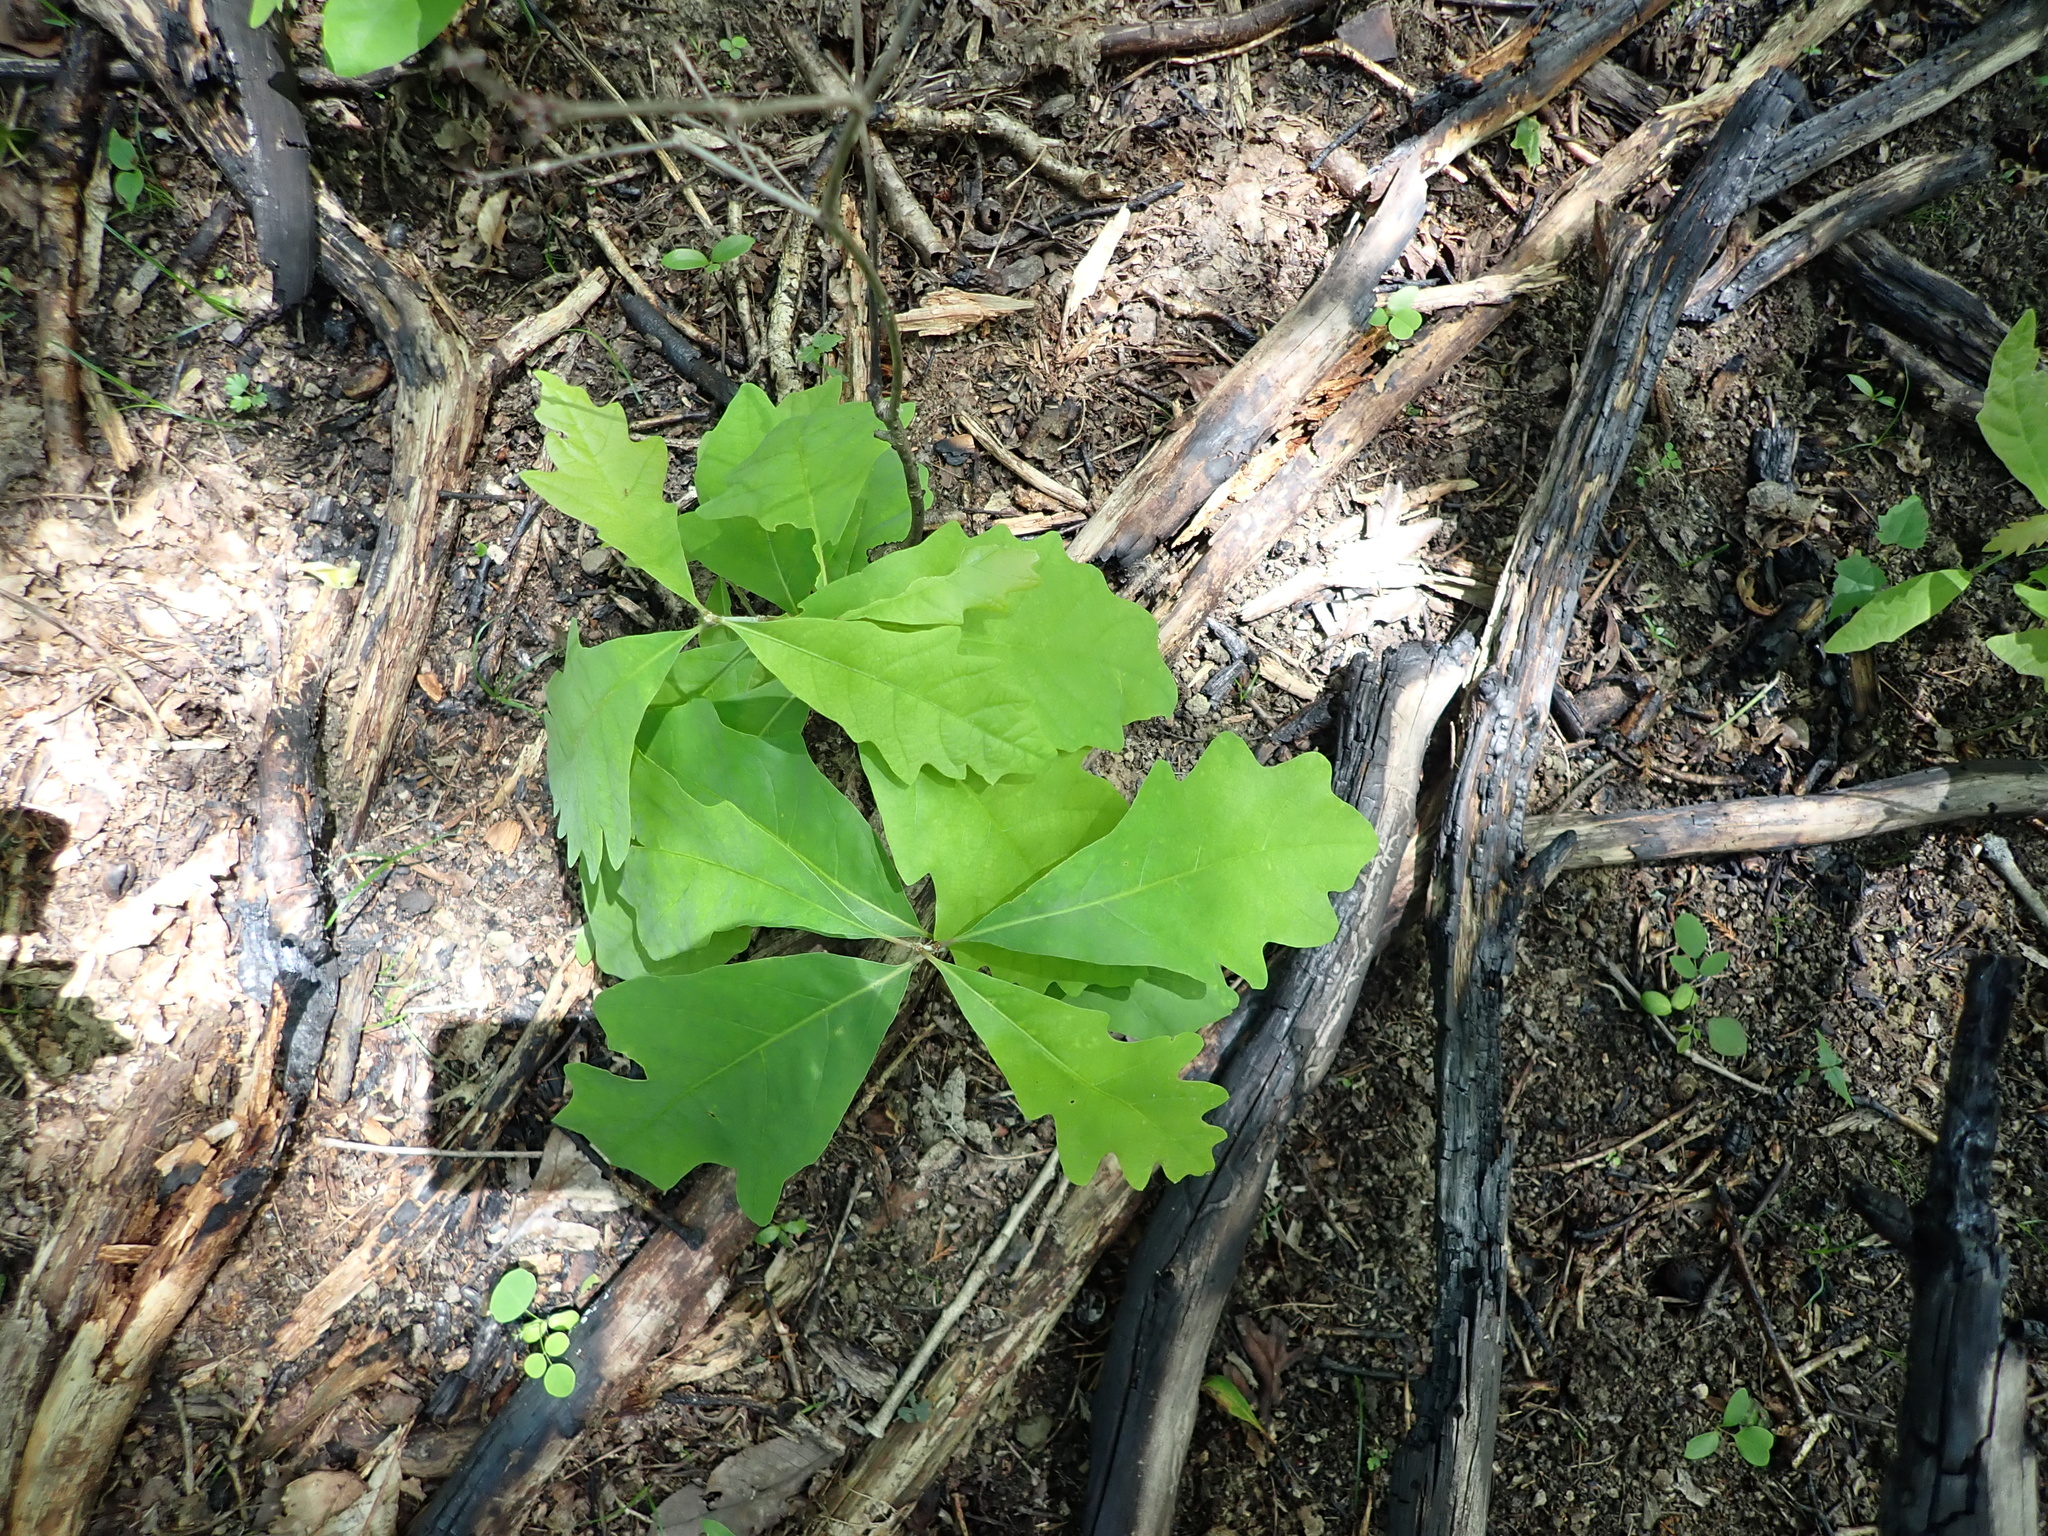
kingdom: Plantae
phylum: Tracheophyta
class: Magnoliopsida
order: Fagales
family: Fagaceae
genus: Quercus
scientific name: Quercus alba
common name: White oak
